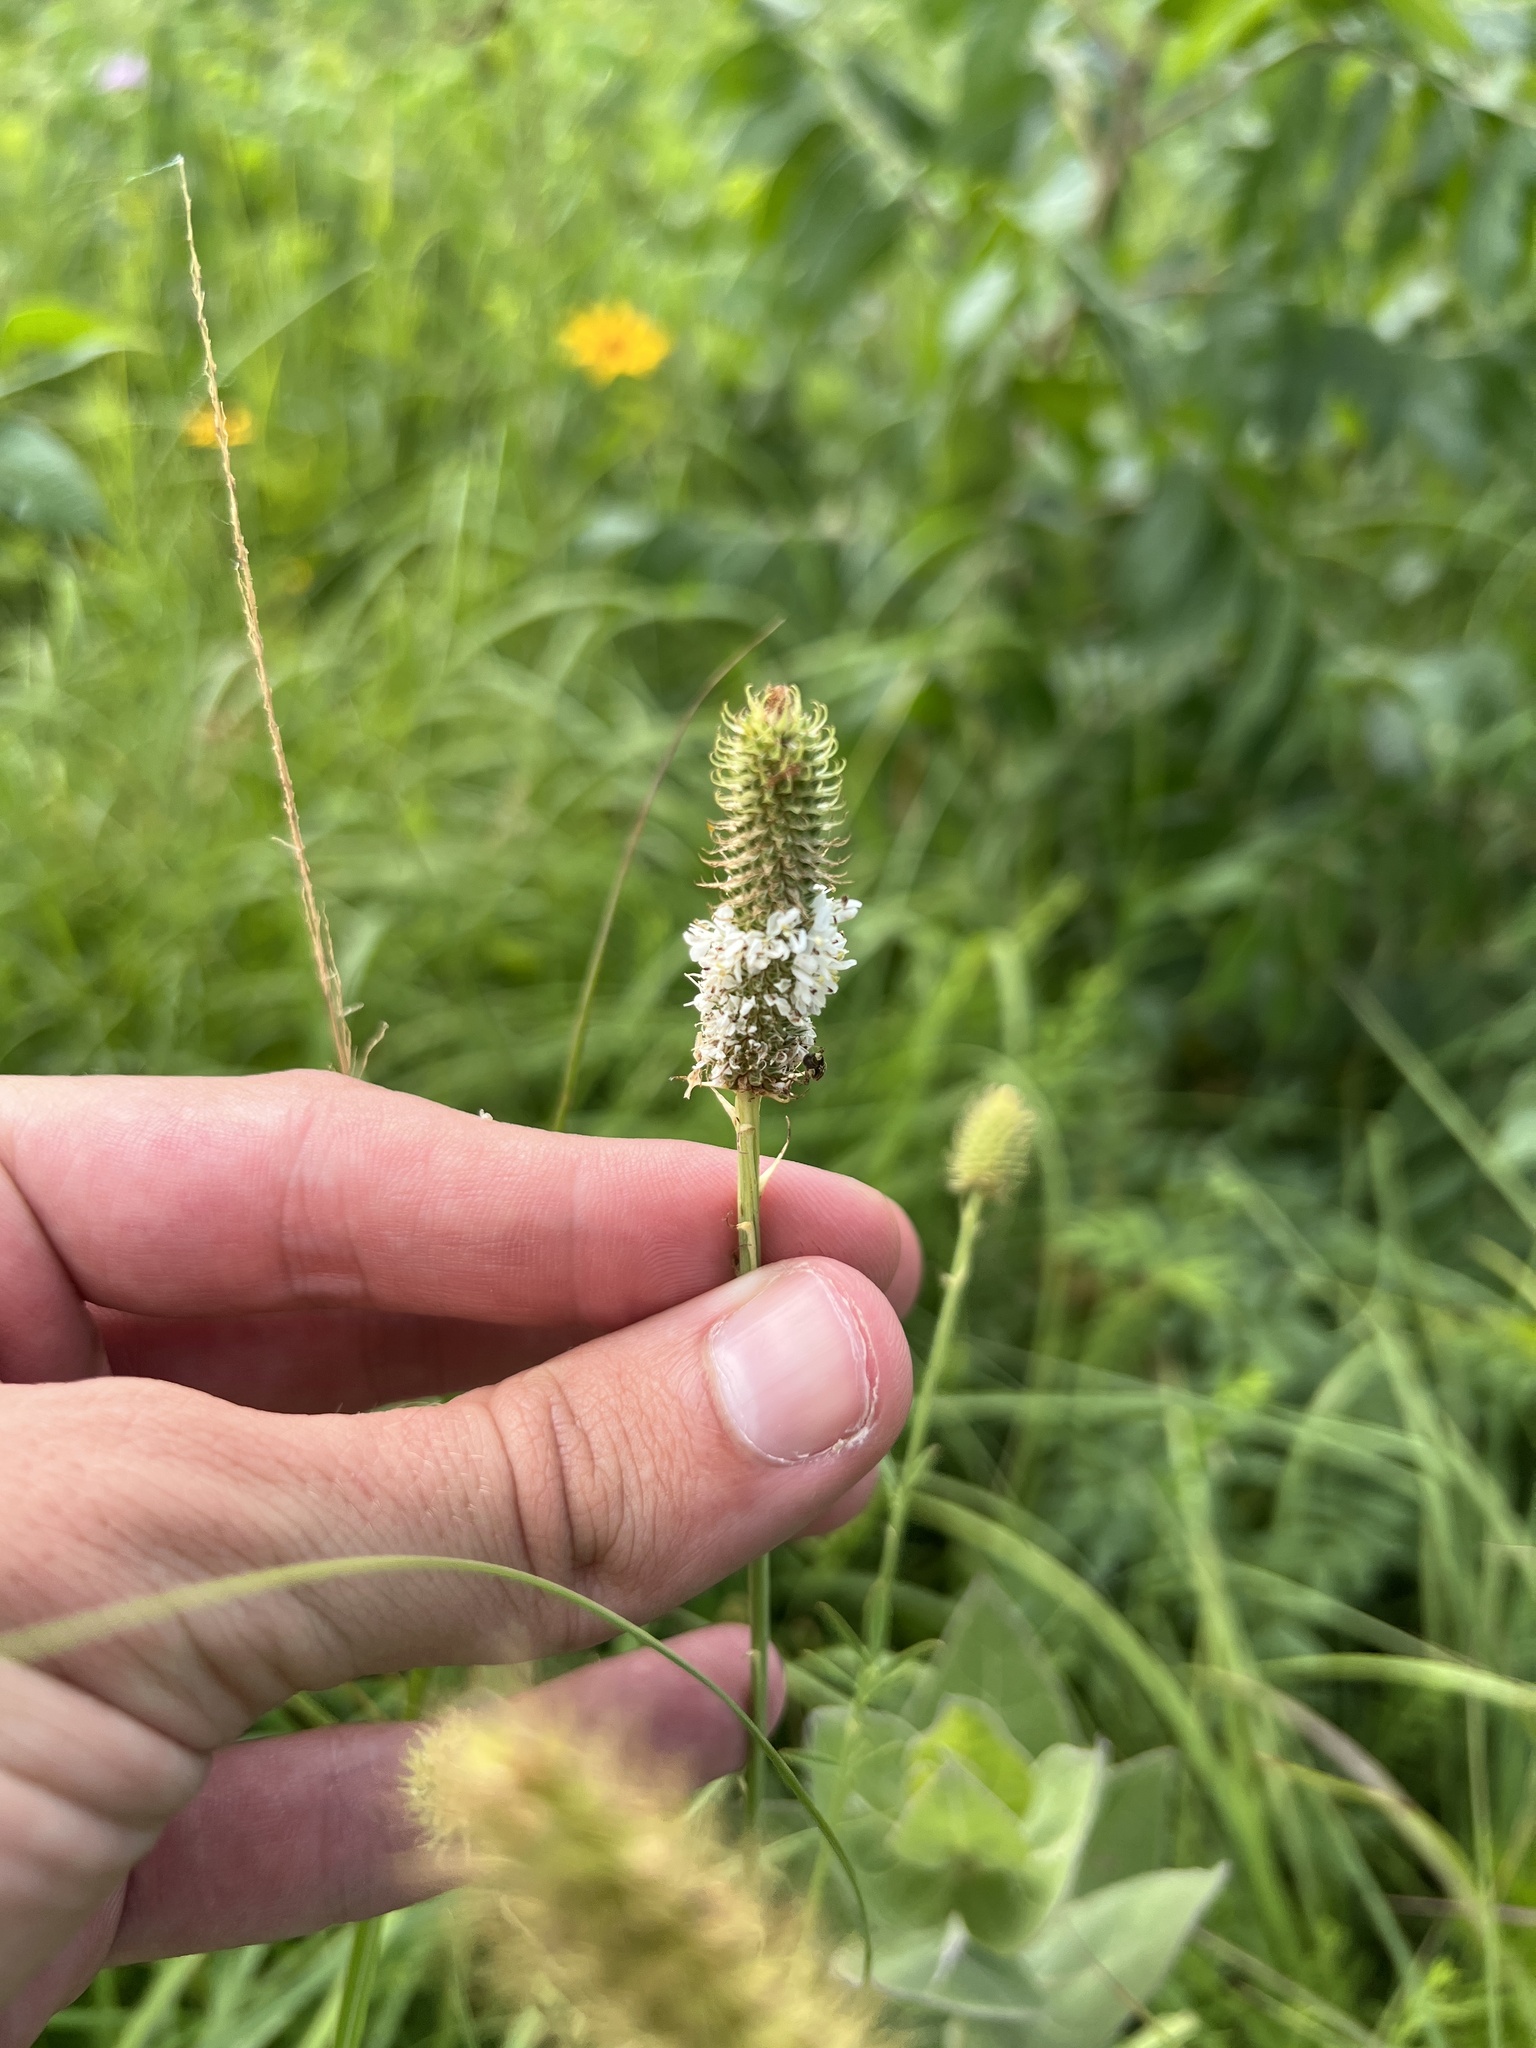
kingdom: Plantae
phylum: Tracheophyta
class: Magnoliopsida
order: Fabales
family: Fabaceae
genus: Dalea
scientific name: Dalea candida
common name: White prairie-clover
